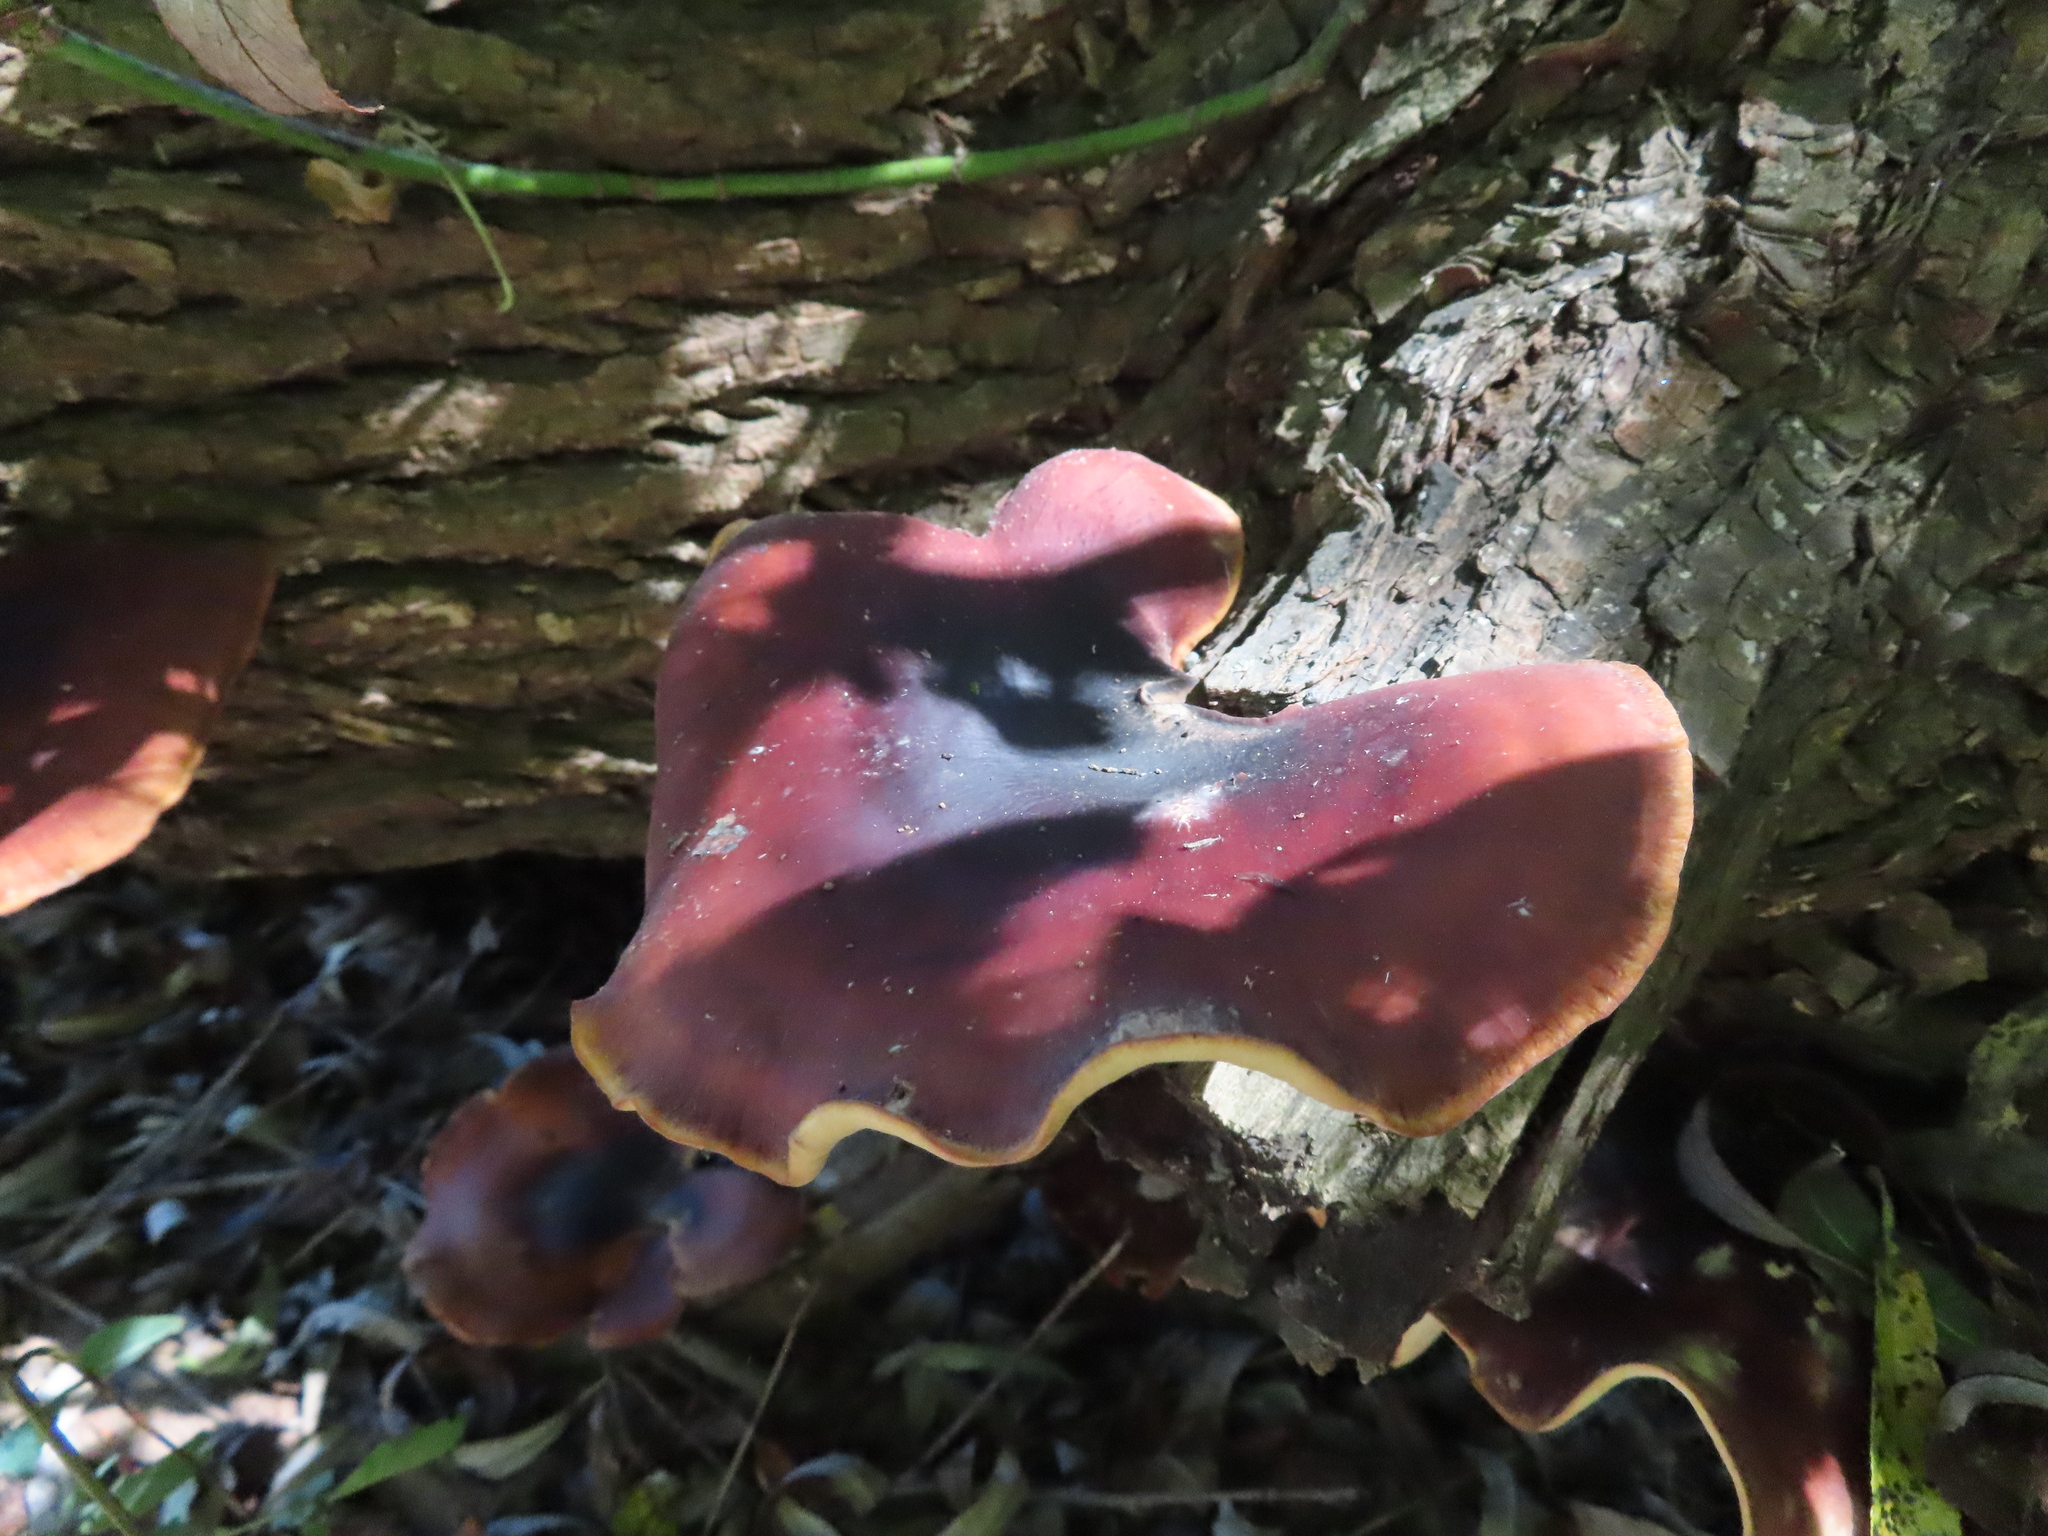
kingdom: Fungi
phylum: Basidiomycota
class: Agaricomycetes
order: Polyporales
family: Polyporaceae
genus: Picipes
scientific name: Picipes badius
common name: Bay polypore
